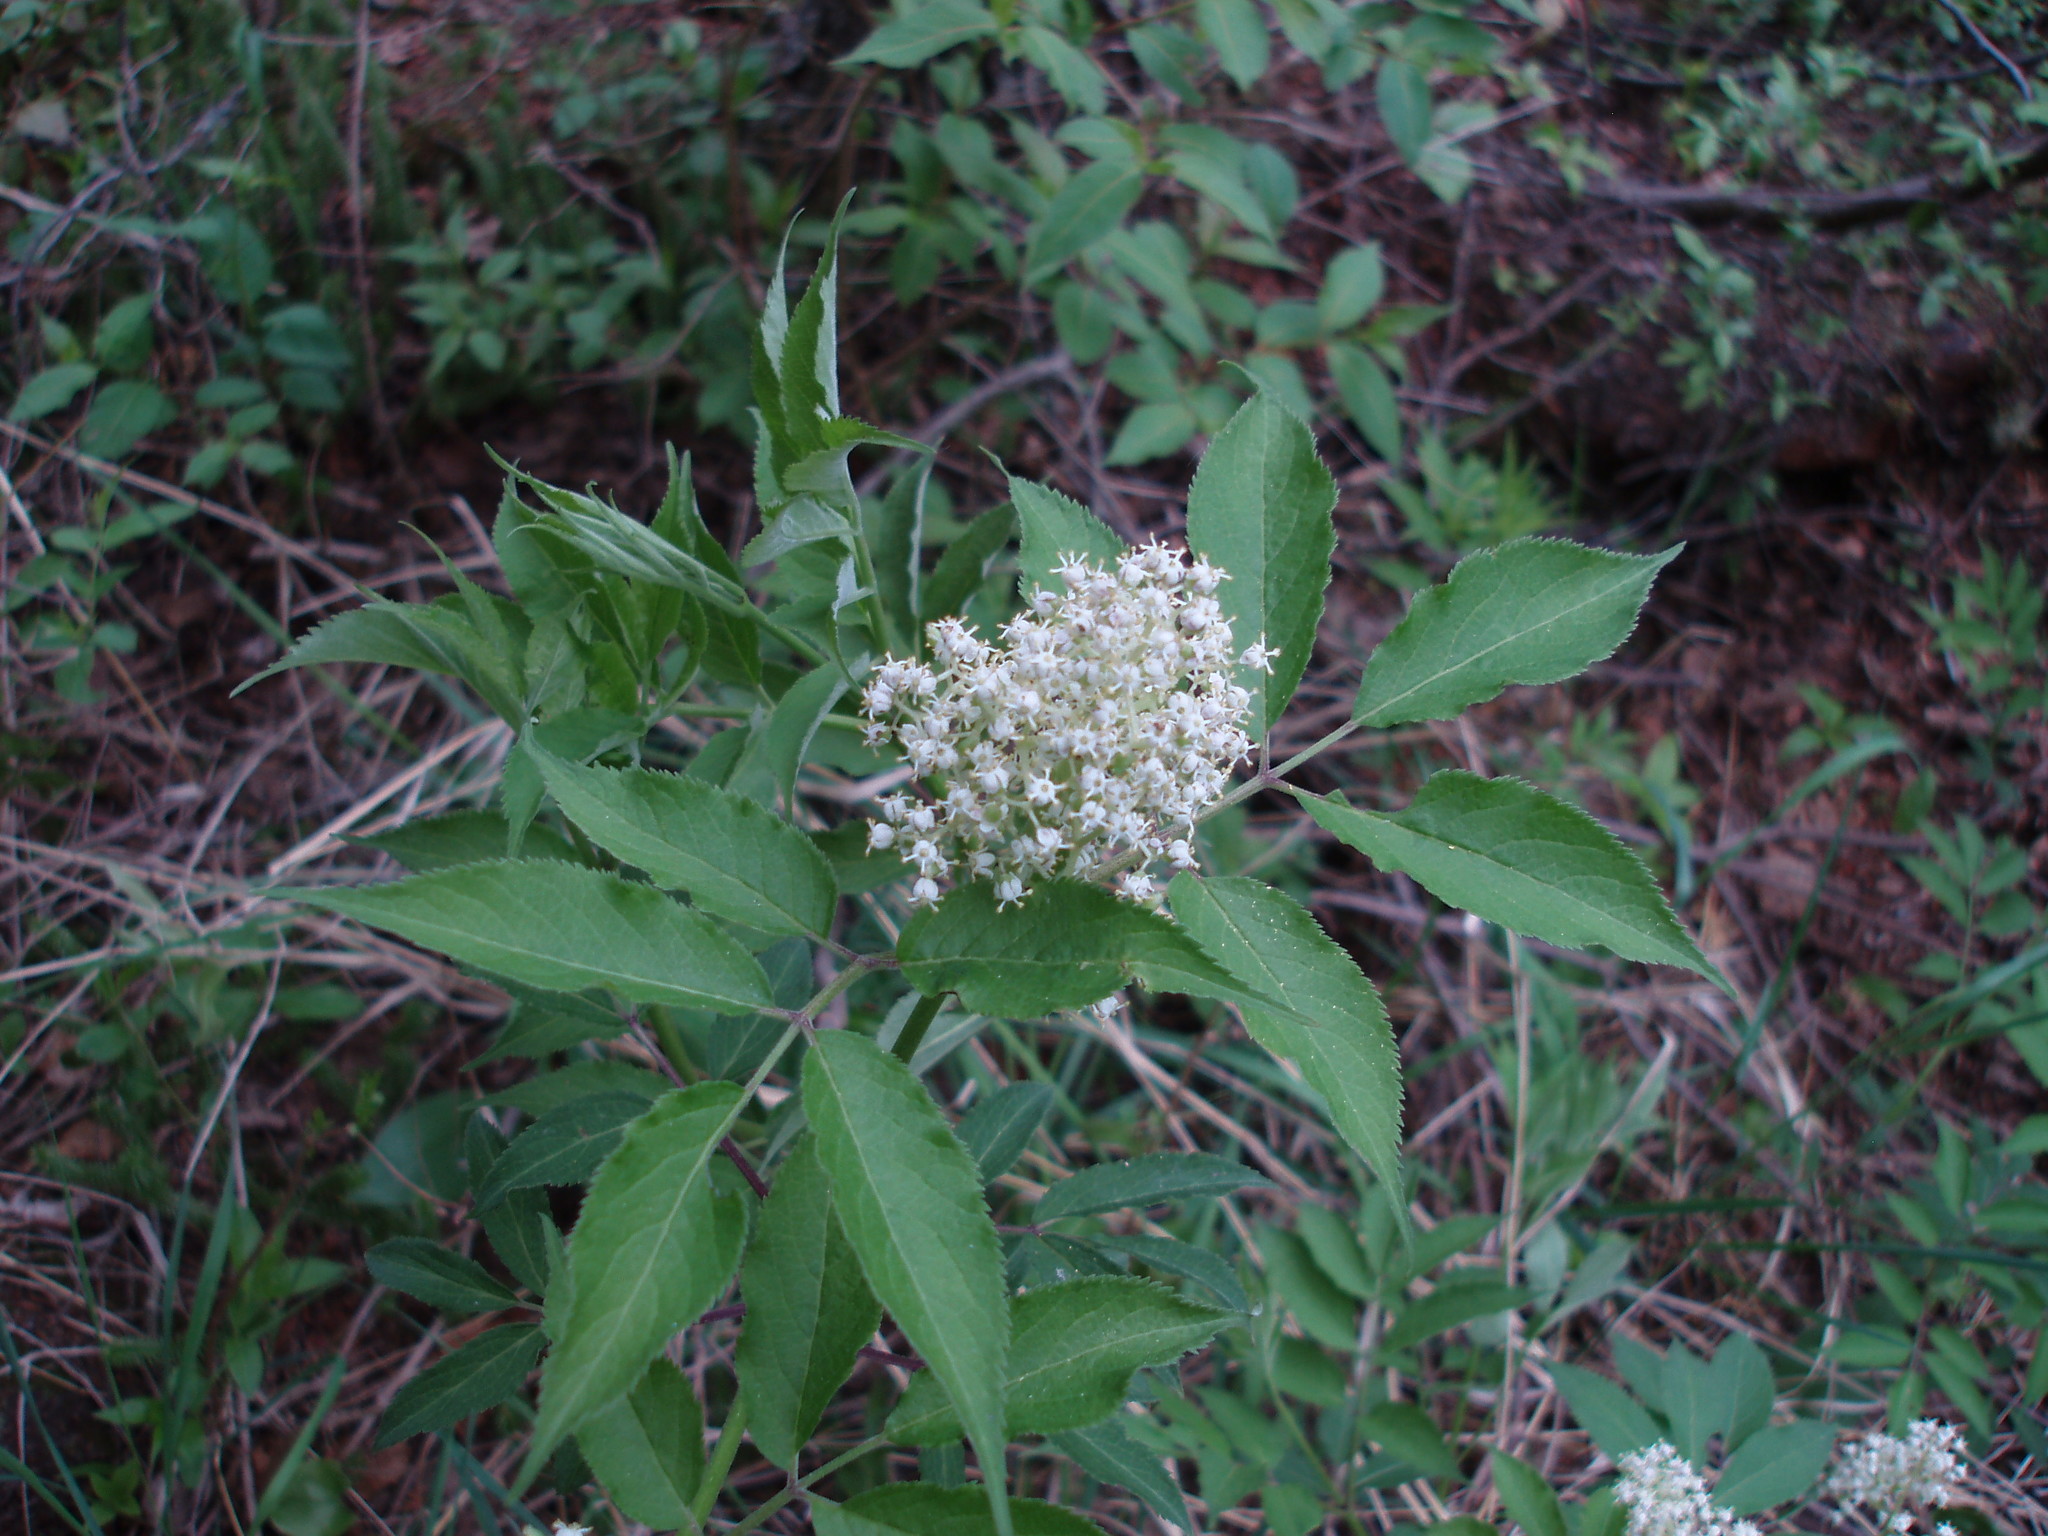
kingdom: Plantae
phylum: Tracheophyta
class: Magnoliopsida
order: Dipsacales
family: Viburnaceae
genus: Sambucus
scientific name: Sambucus racemosa
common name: Red-berried elder
